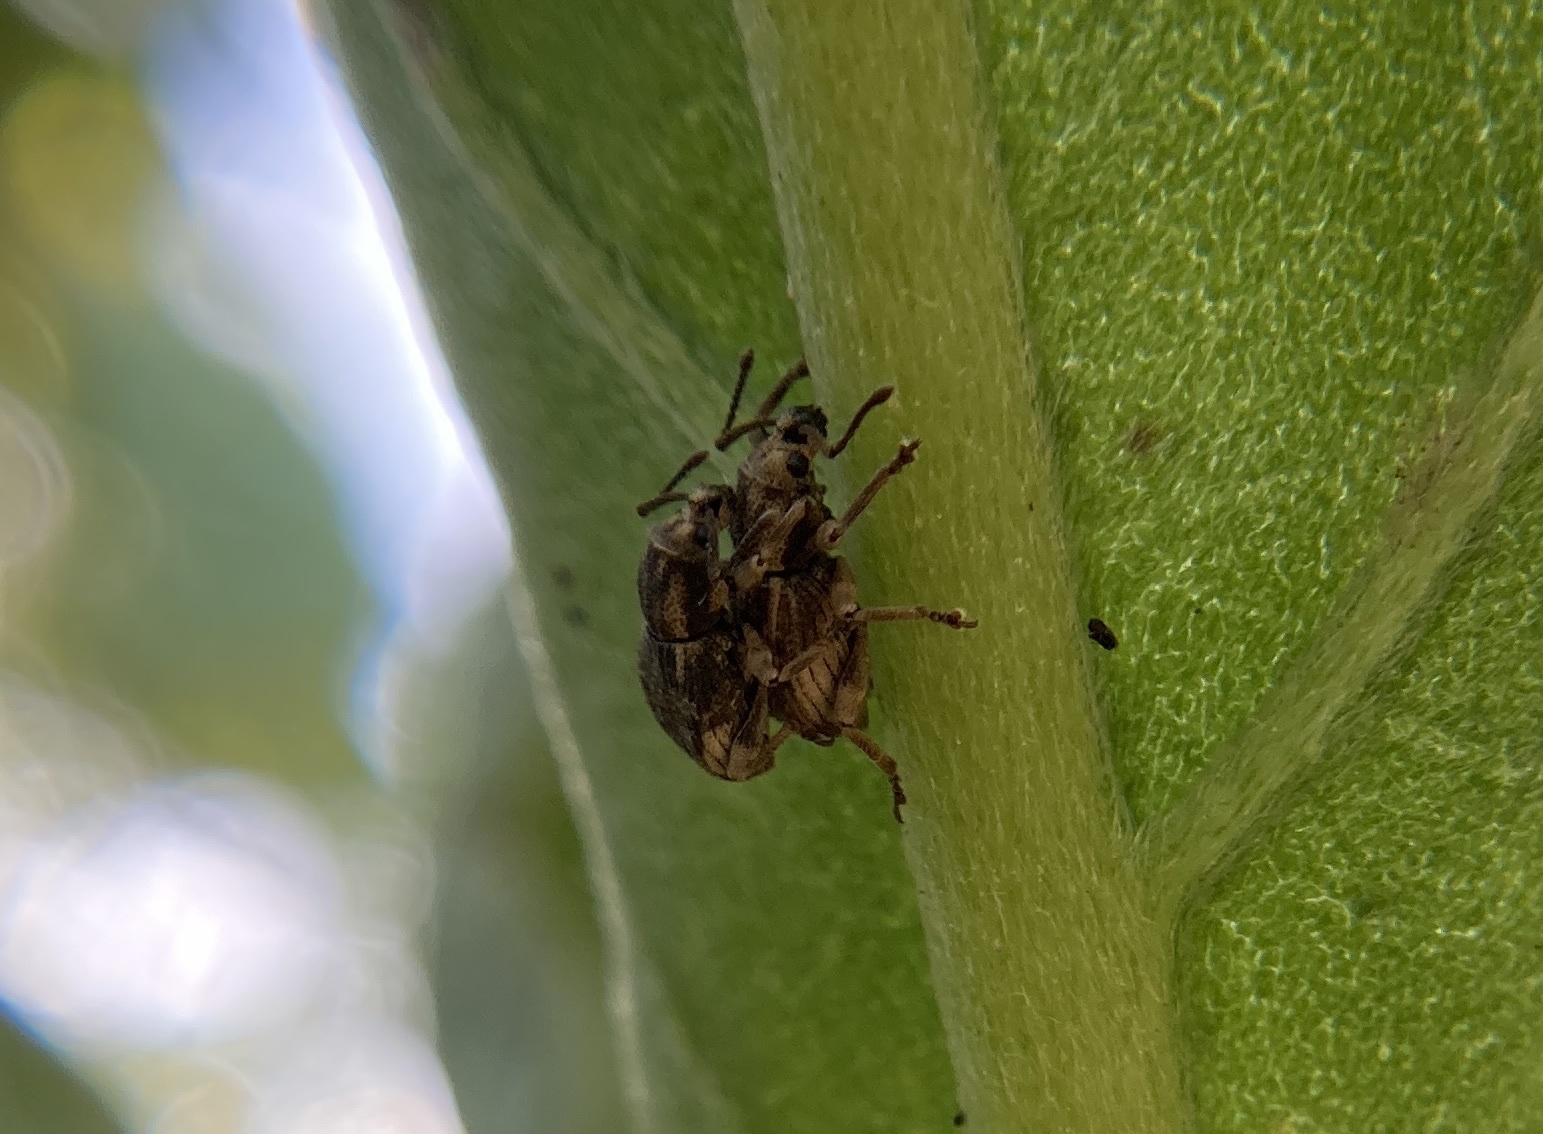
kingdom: Animalia
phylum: Arthropoda
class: Insecta
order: Coleoptera
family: Curculionidae
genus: Platysimus
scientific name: Platysimus insularis
